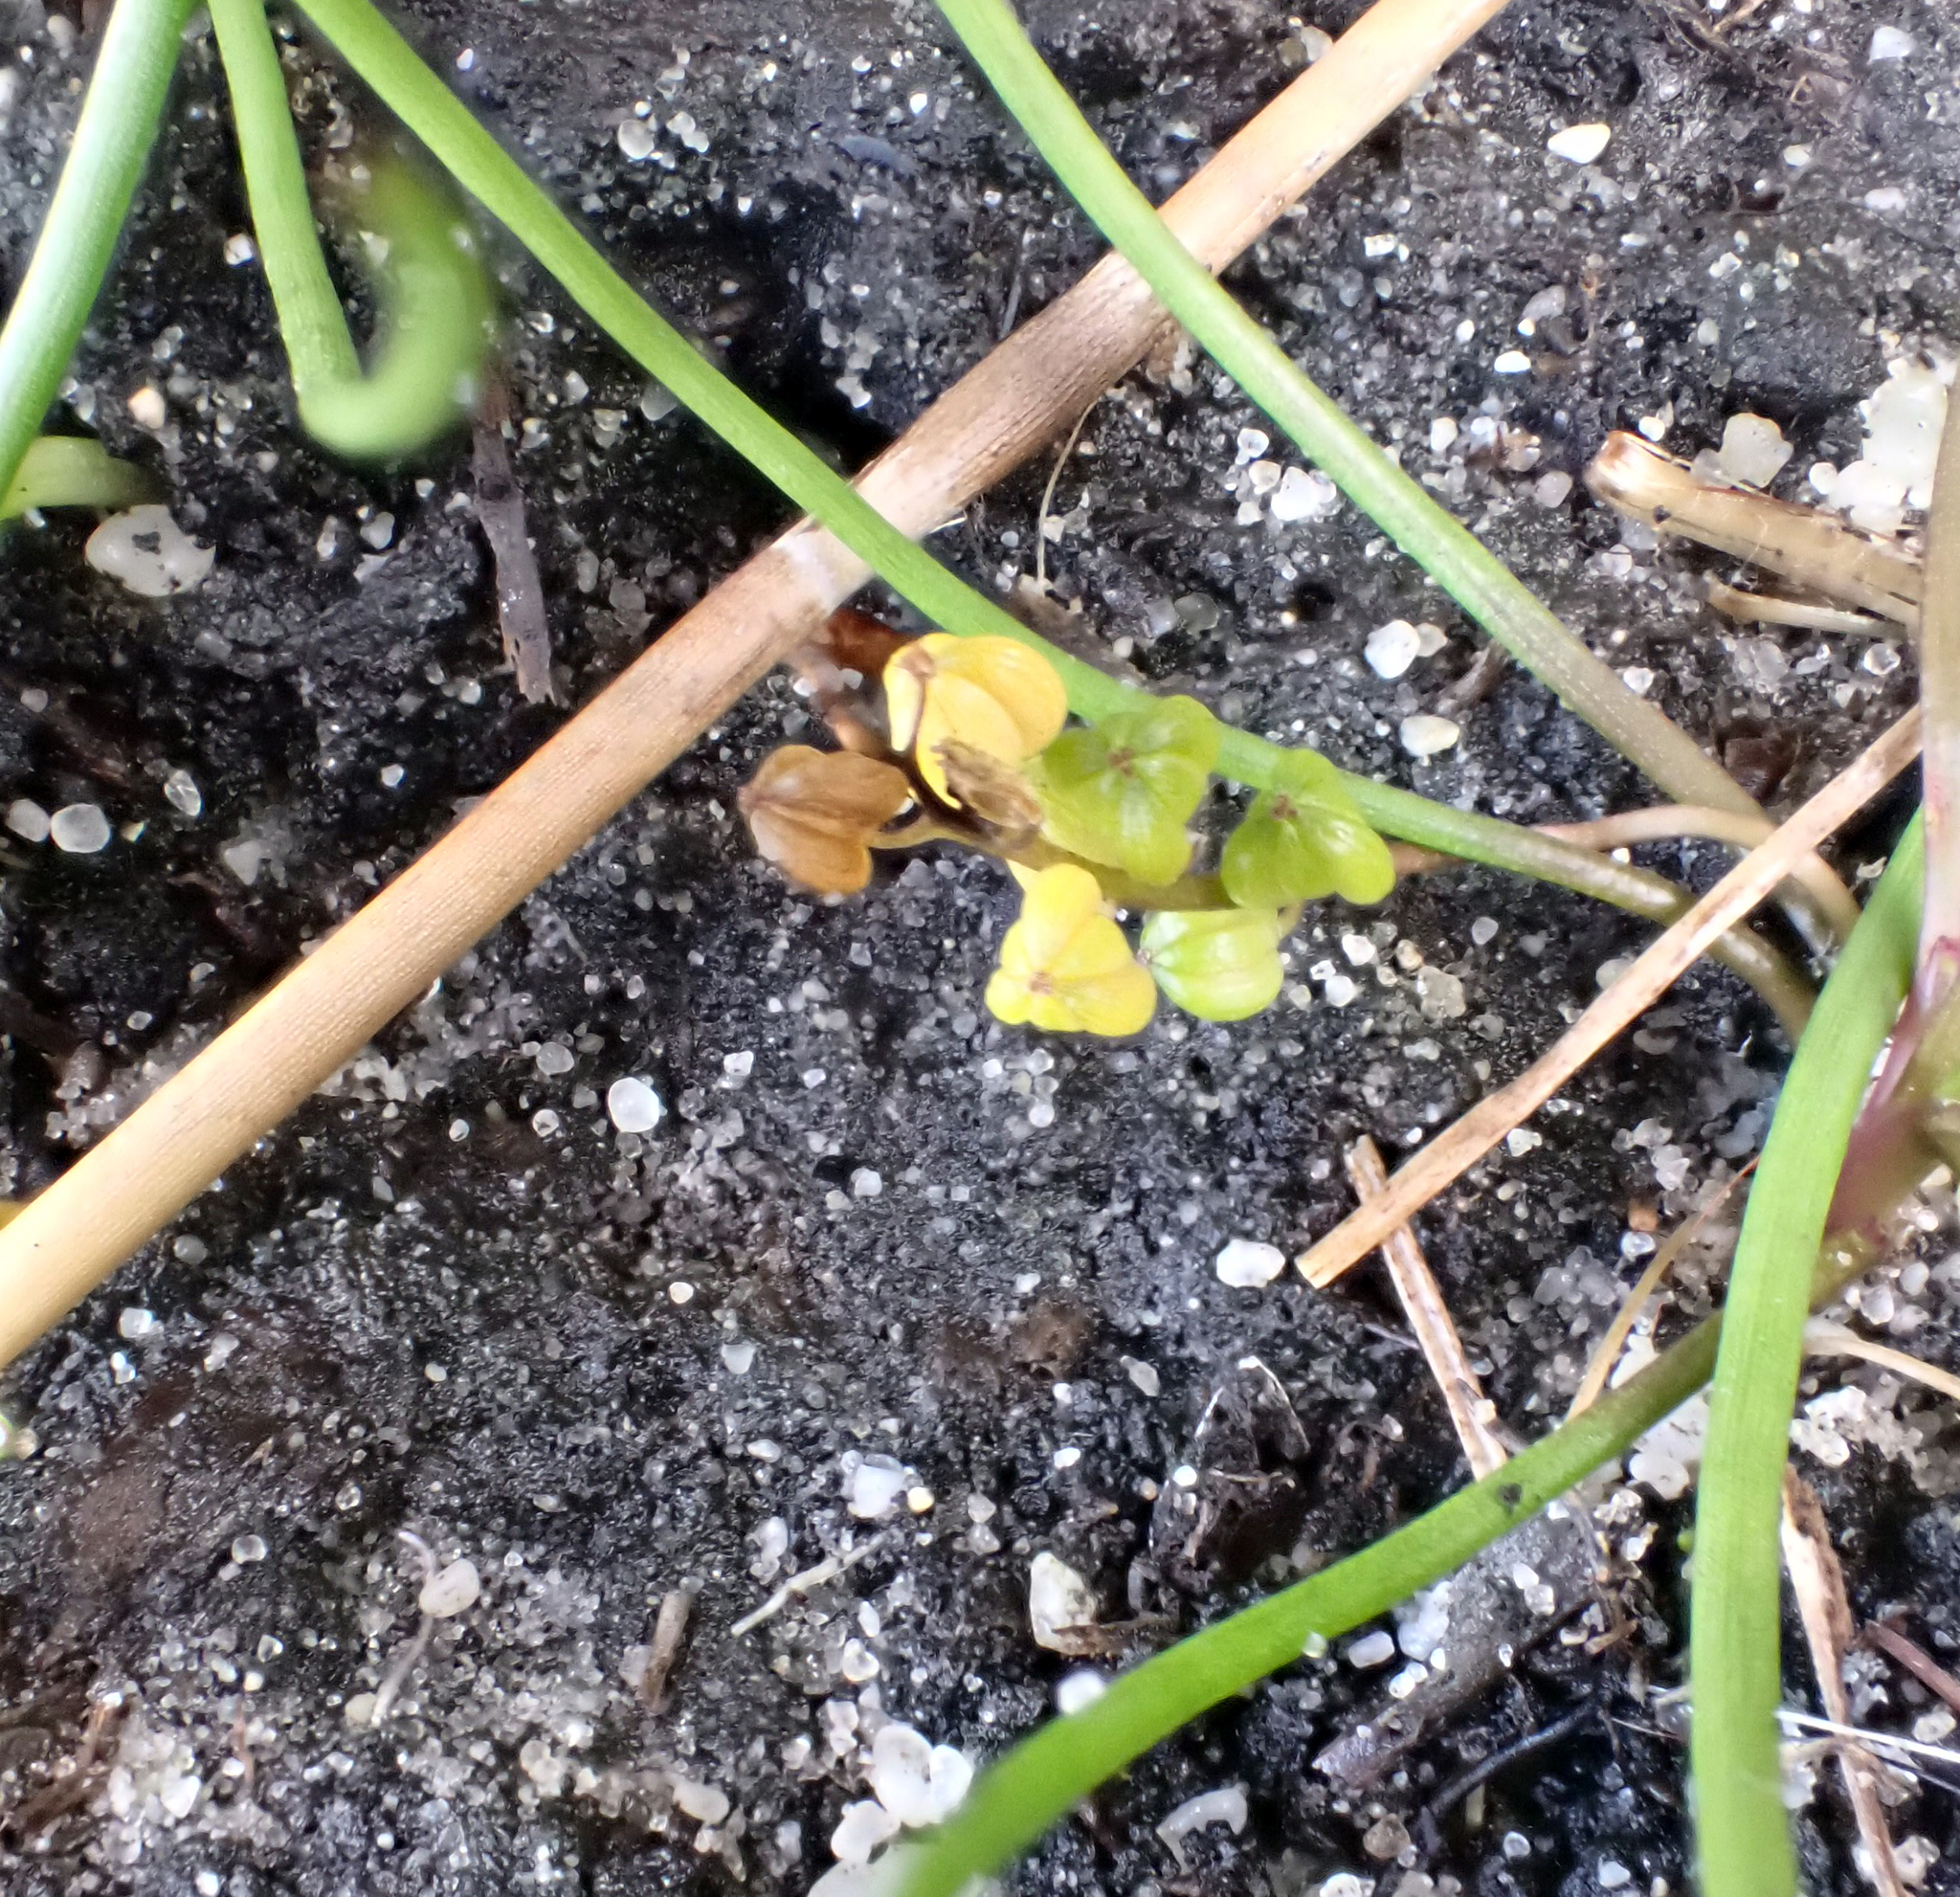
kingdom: Plantae
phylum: Tracheophyta
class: Liliopsida
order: Alismatales
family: Juncaginaceae
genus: Triglochin
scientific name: Triglochin striata
